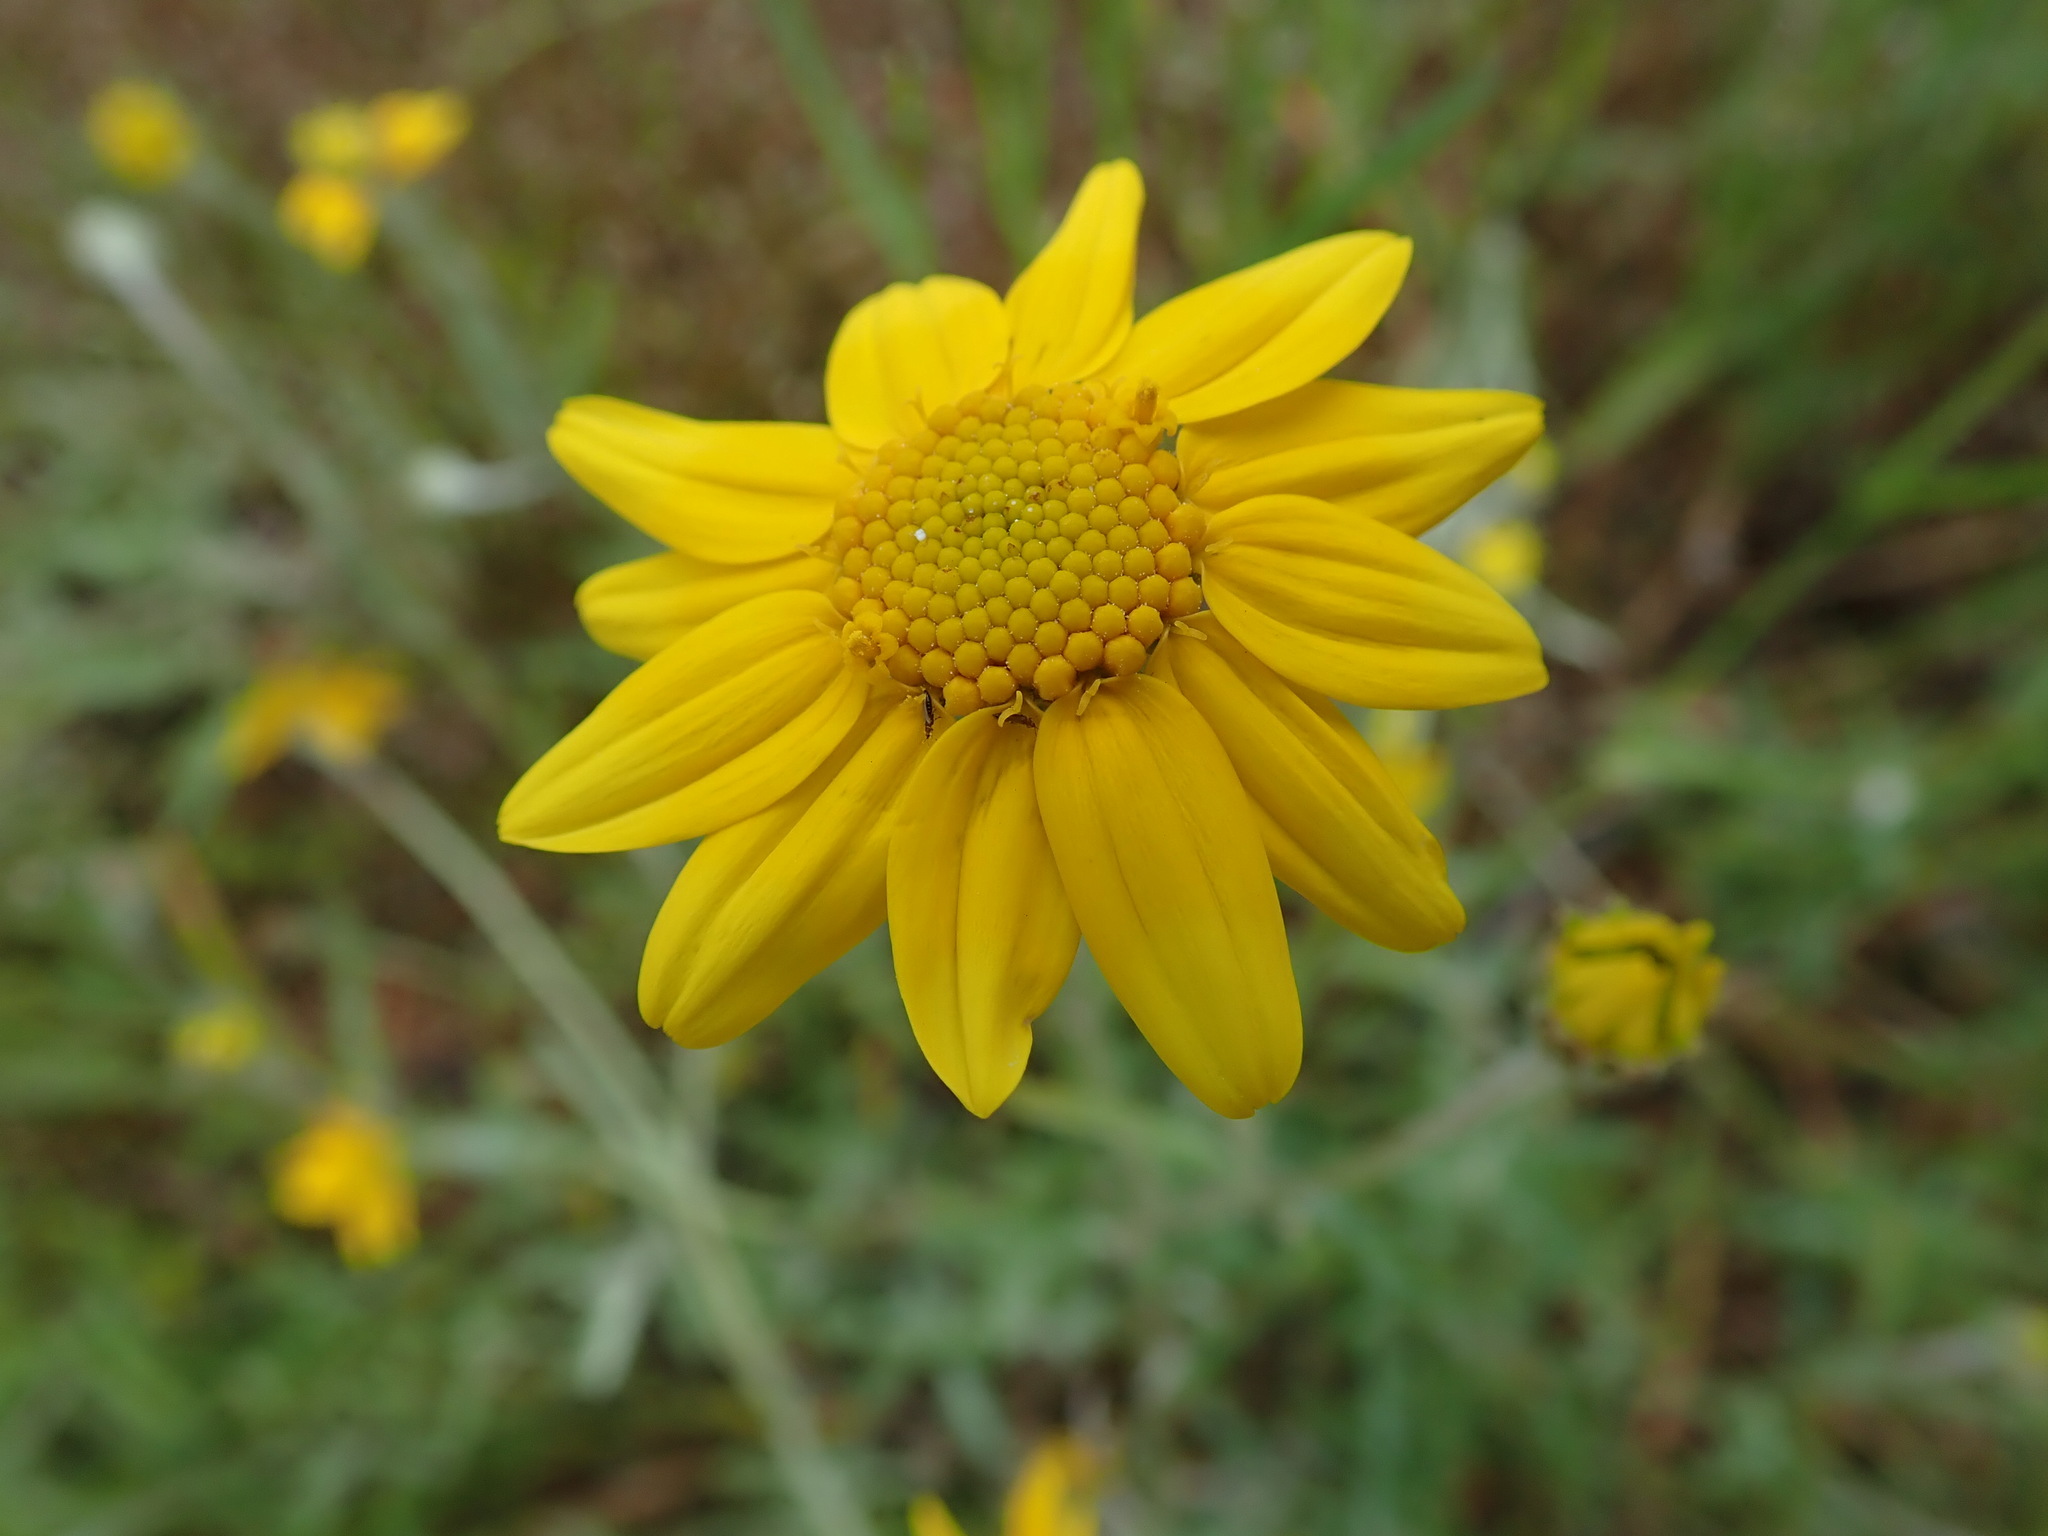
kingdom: Plantae
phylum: Tracheophyta
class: Magnoliopsida
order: Asterales
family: Asteraceae
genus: Eriophyllum
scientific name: Eriophyllum lanatum
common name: Common woolly-sunflower
